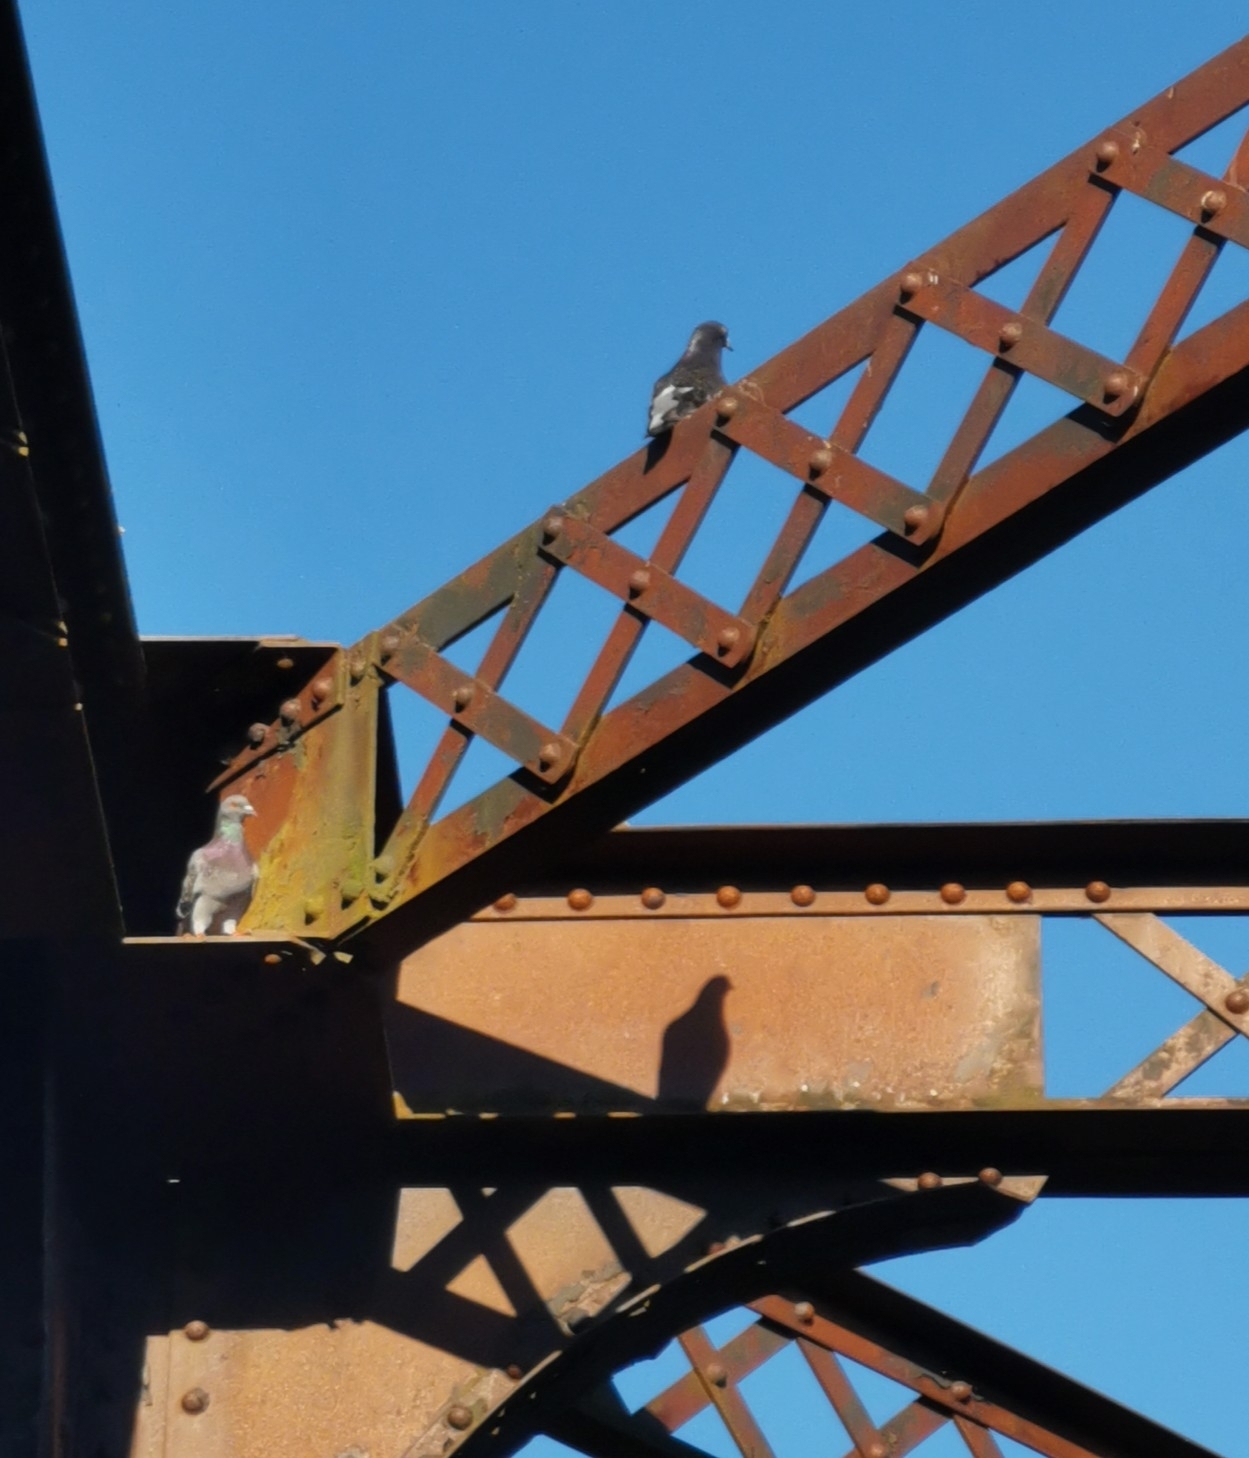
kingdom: Animalia
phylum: Chordata
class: Aves
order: Columbiformes
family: Columbidae
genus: Columba
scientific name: Columba livia
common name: Rock pigeon
